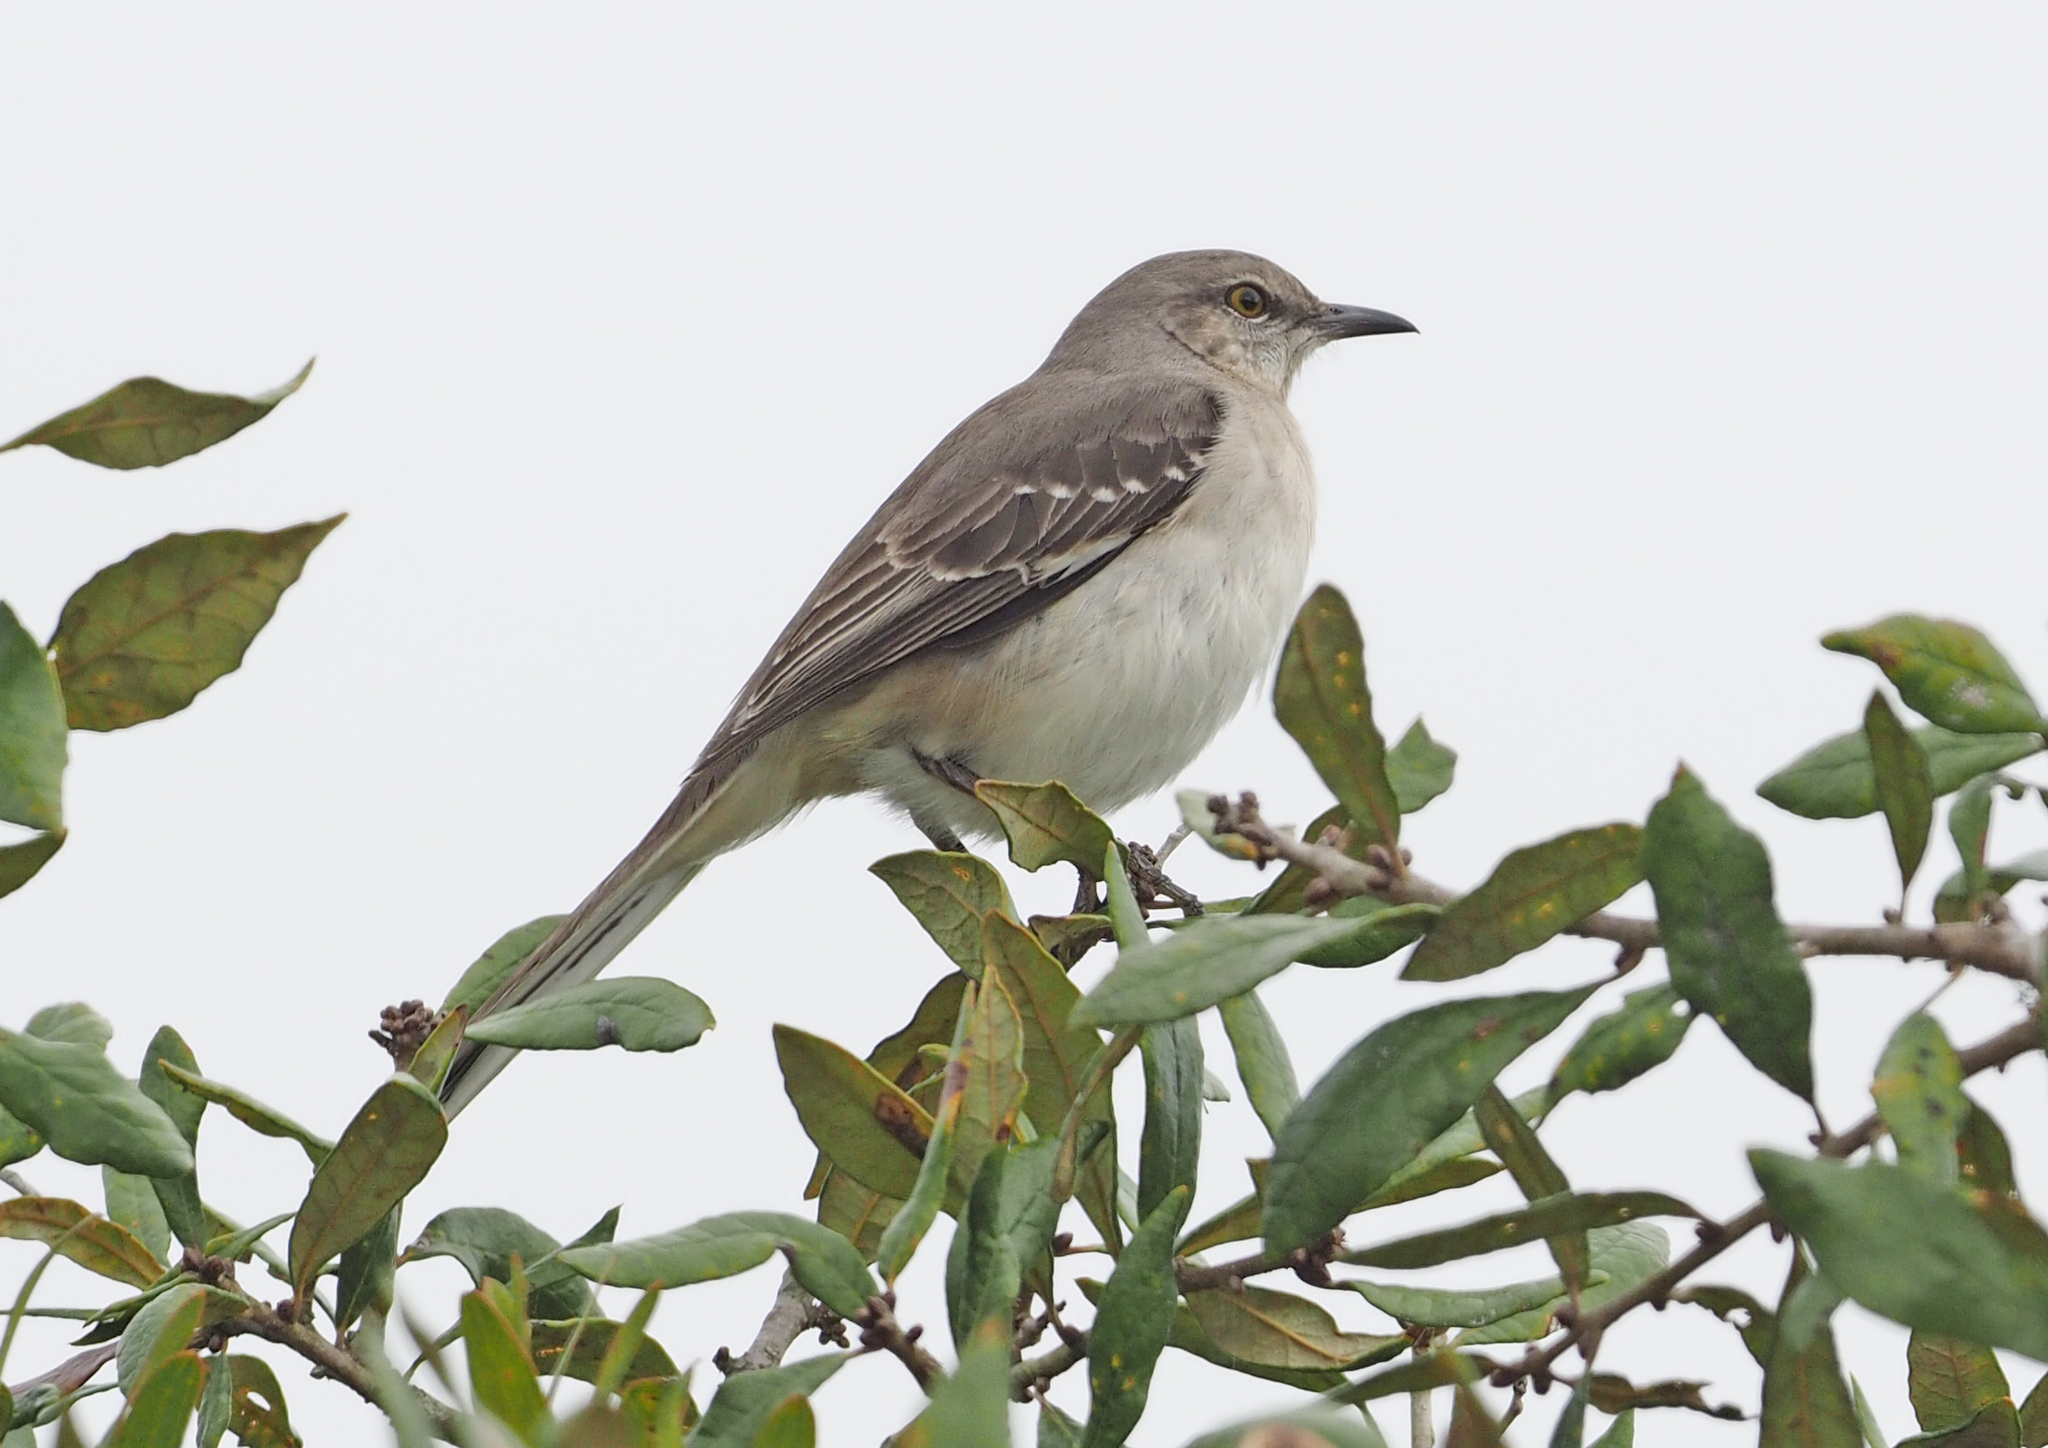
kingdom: Animalia
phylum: Chordata
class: Aves
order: Passeriformes
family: Mimidae
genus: Mimus
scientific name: Mimus polyglottos
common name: Northern mockingbird
